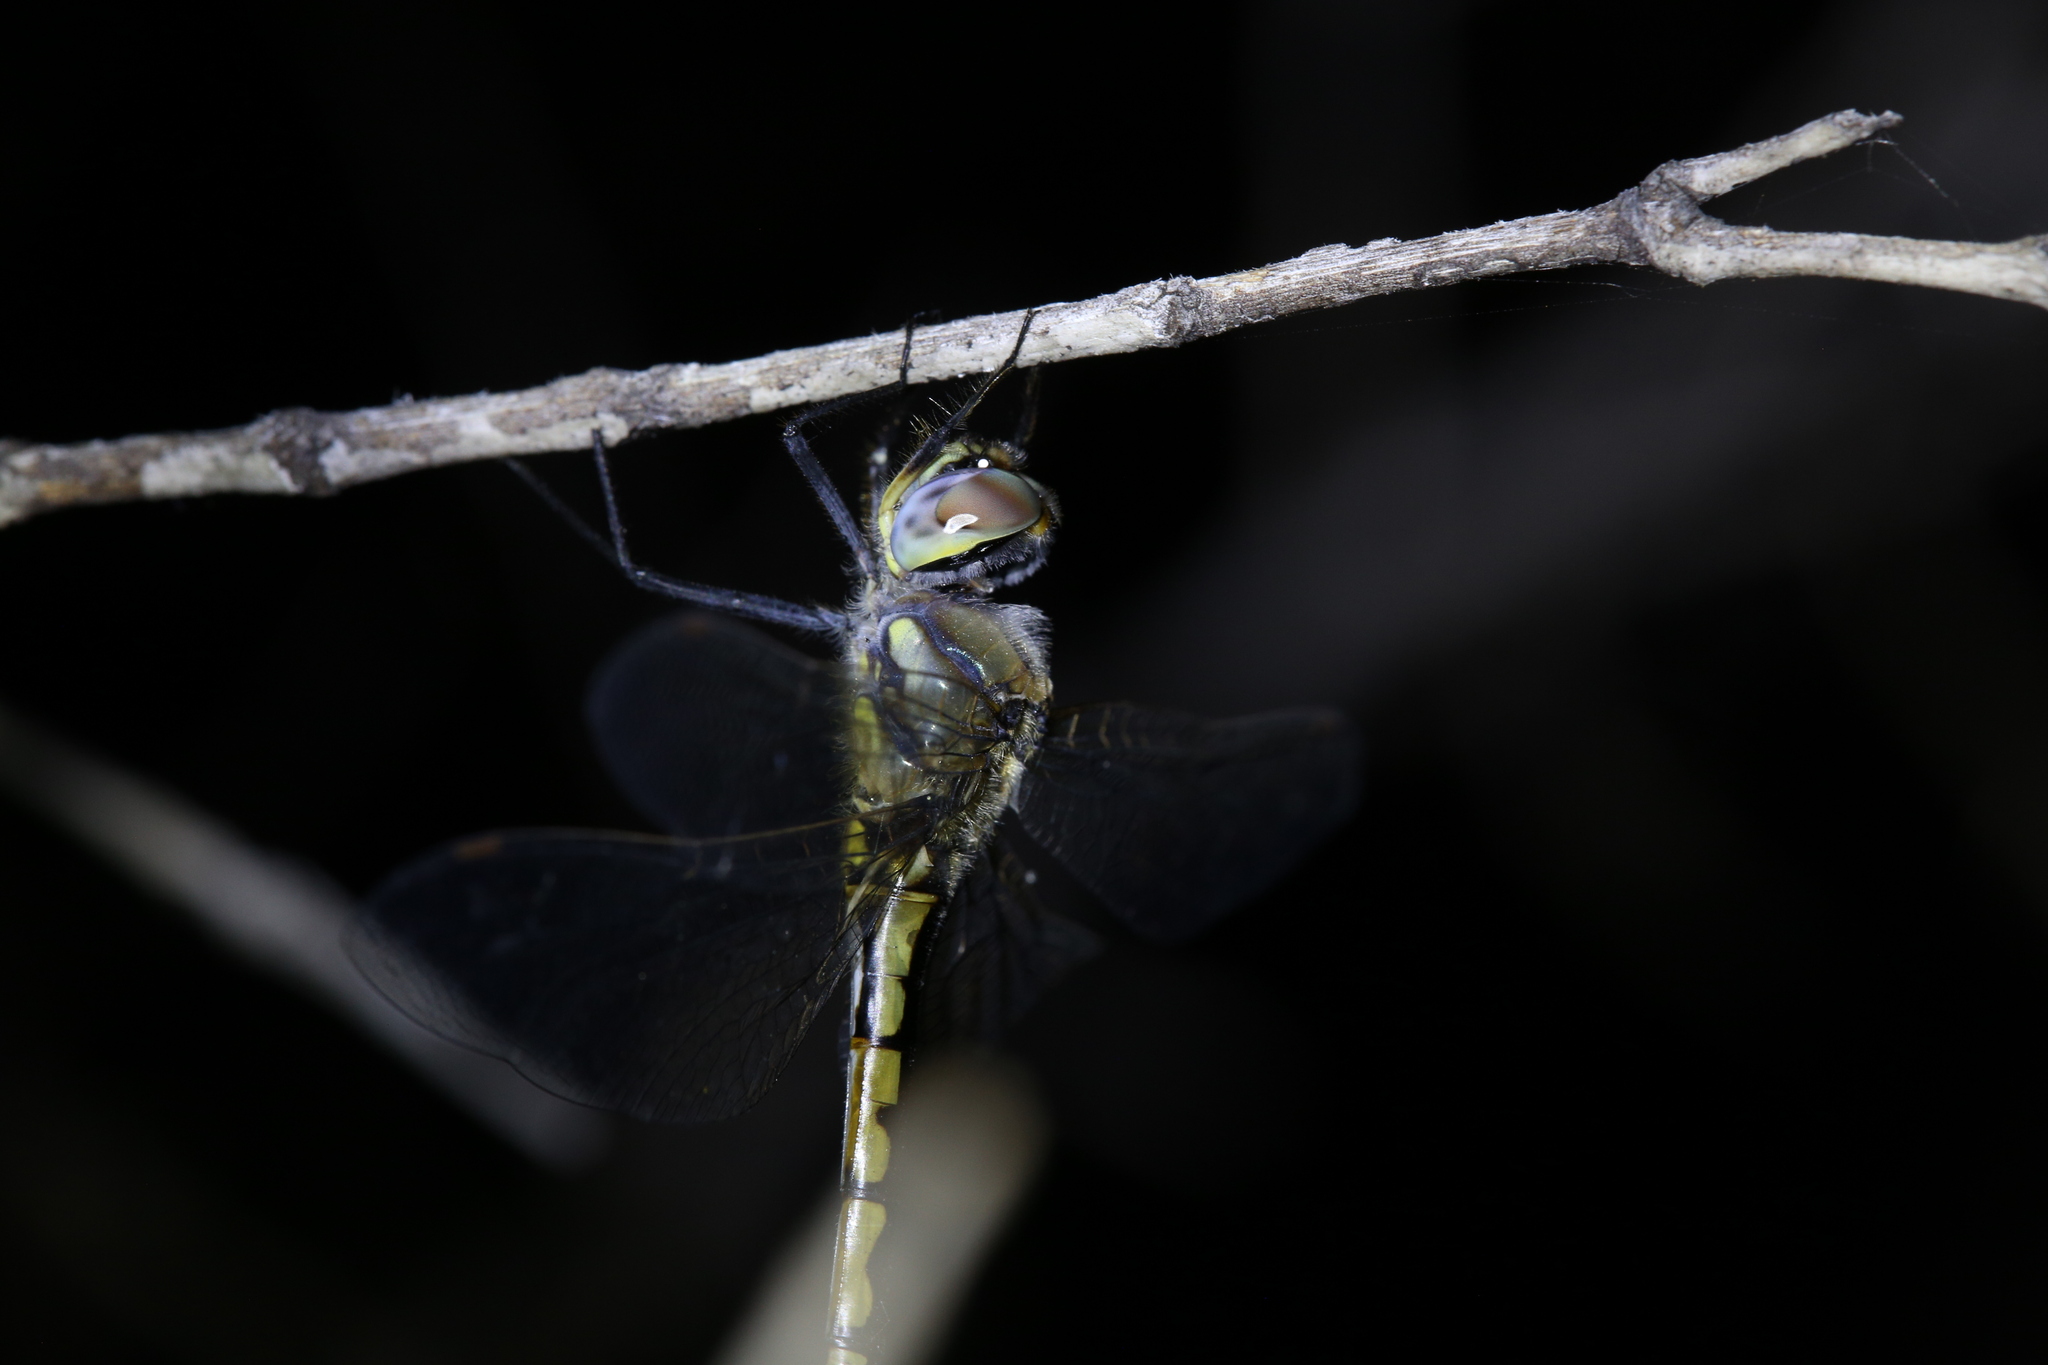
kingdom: Animalia
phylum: Arthropoda
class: Insecta
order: Odonata
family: Corduliidae
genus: Hemicordulia
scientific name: Hemicordulia tau
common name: Tau emerald
